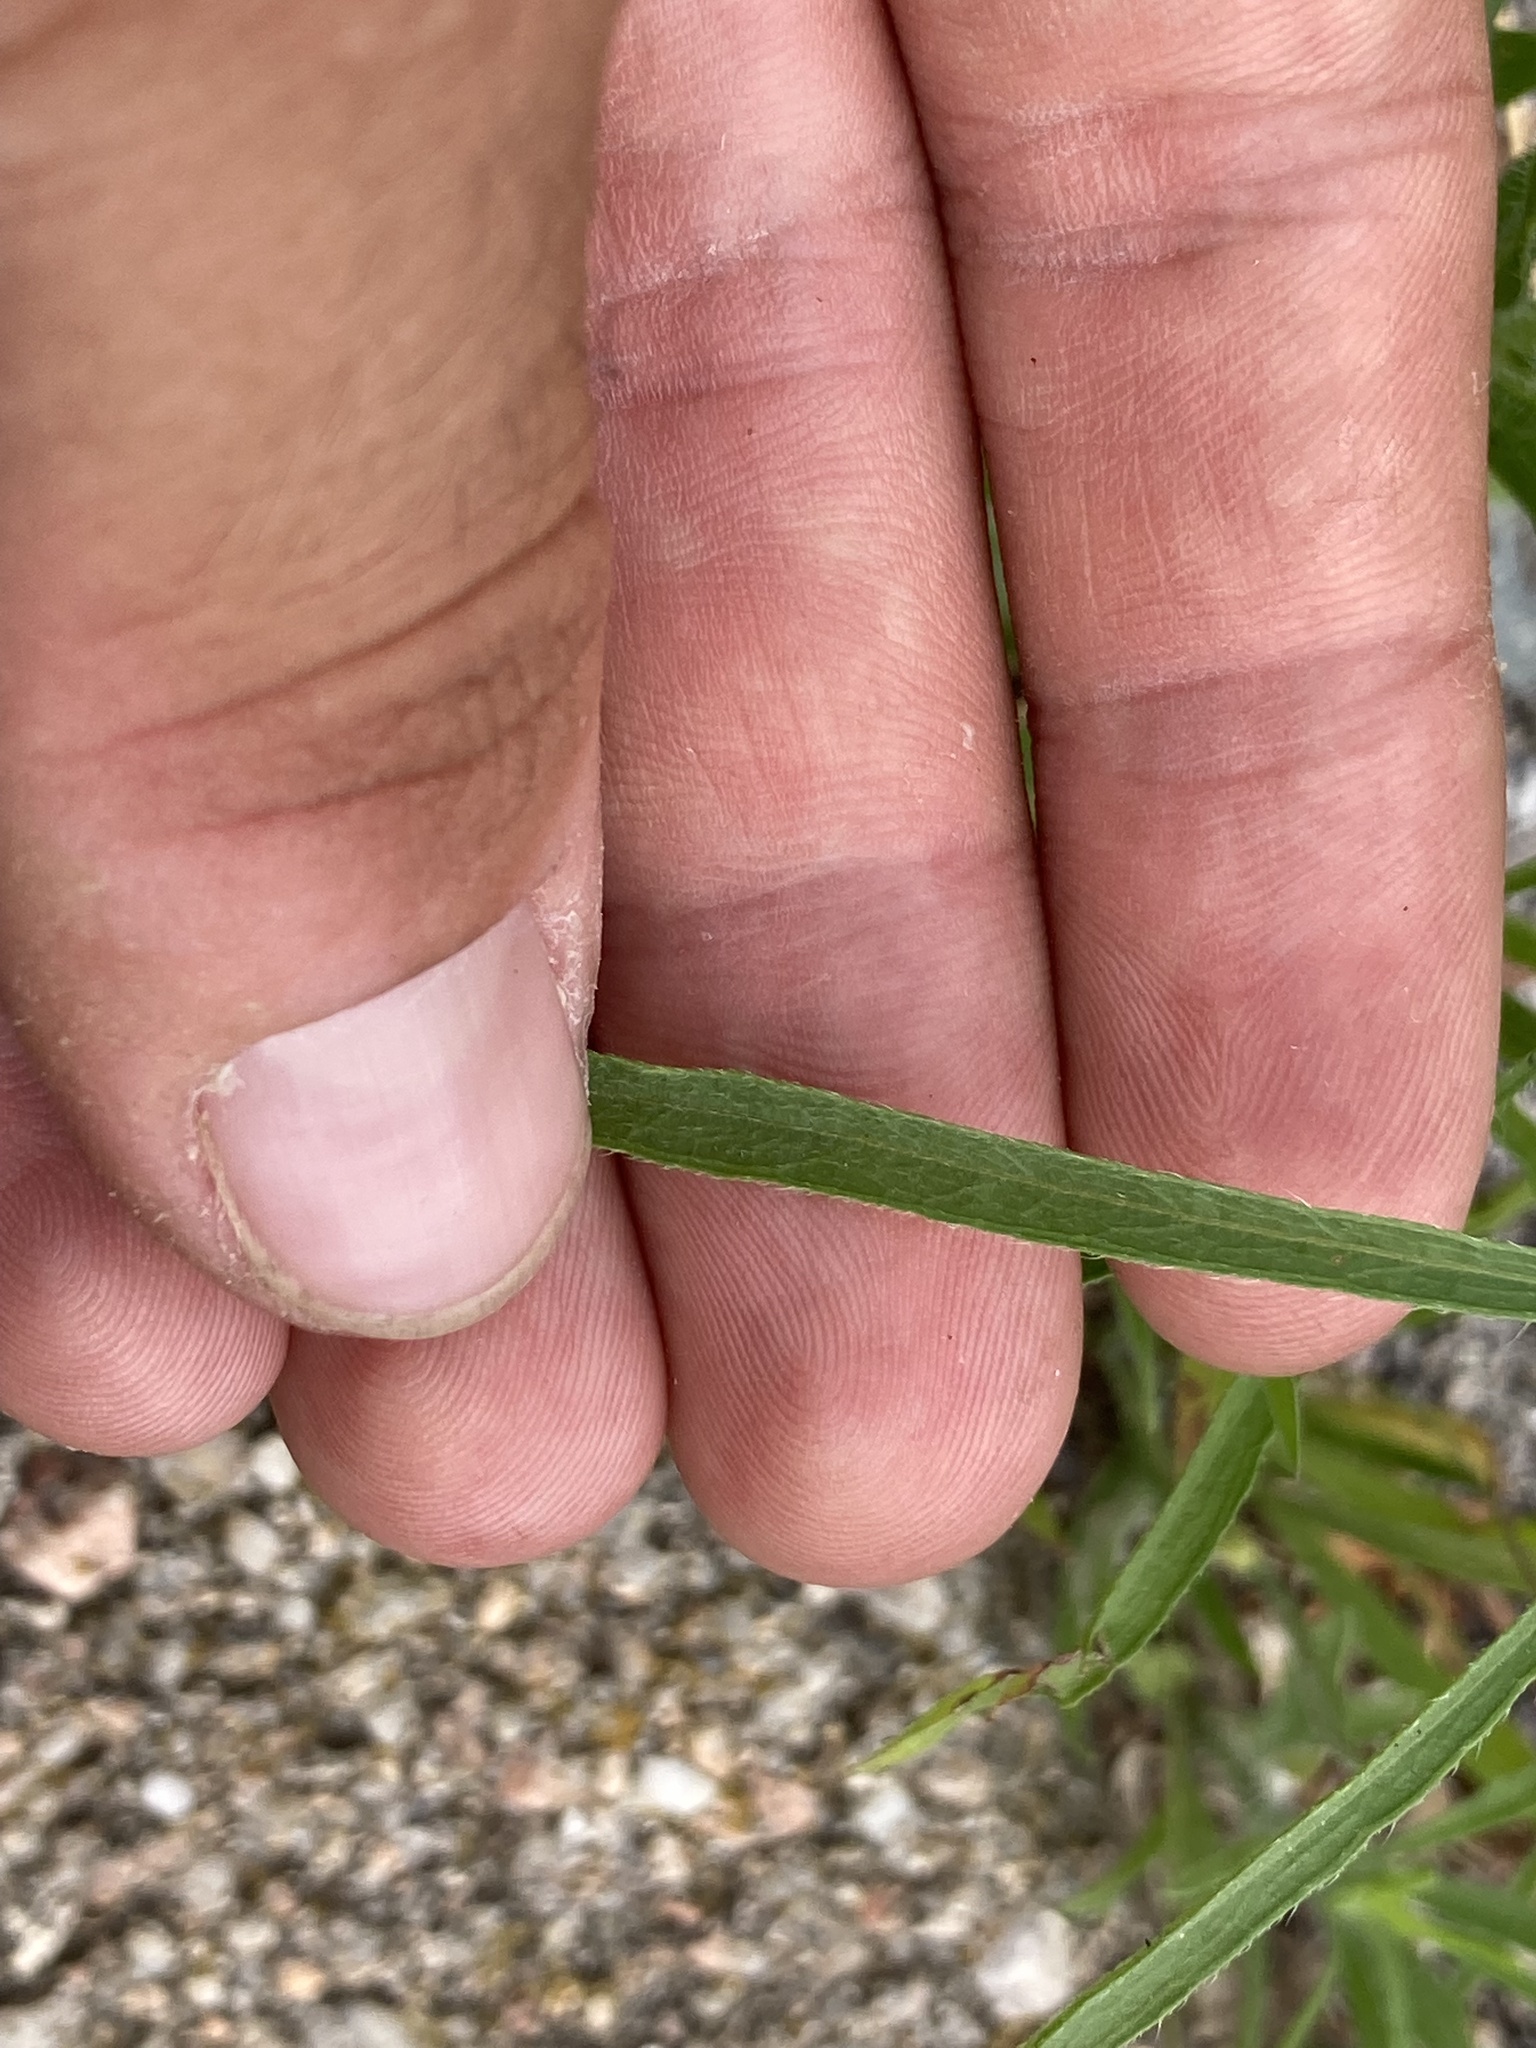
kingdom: Plantae
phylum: Tracheophyta
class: Magnoliopsida
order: Asterales
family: Asteraceae
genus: Erigeron
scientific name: Erigeron canadensis
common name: Canadian fleabane
